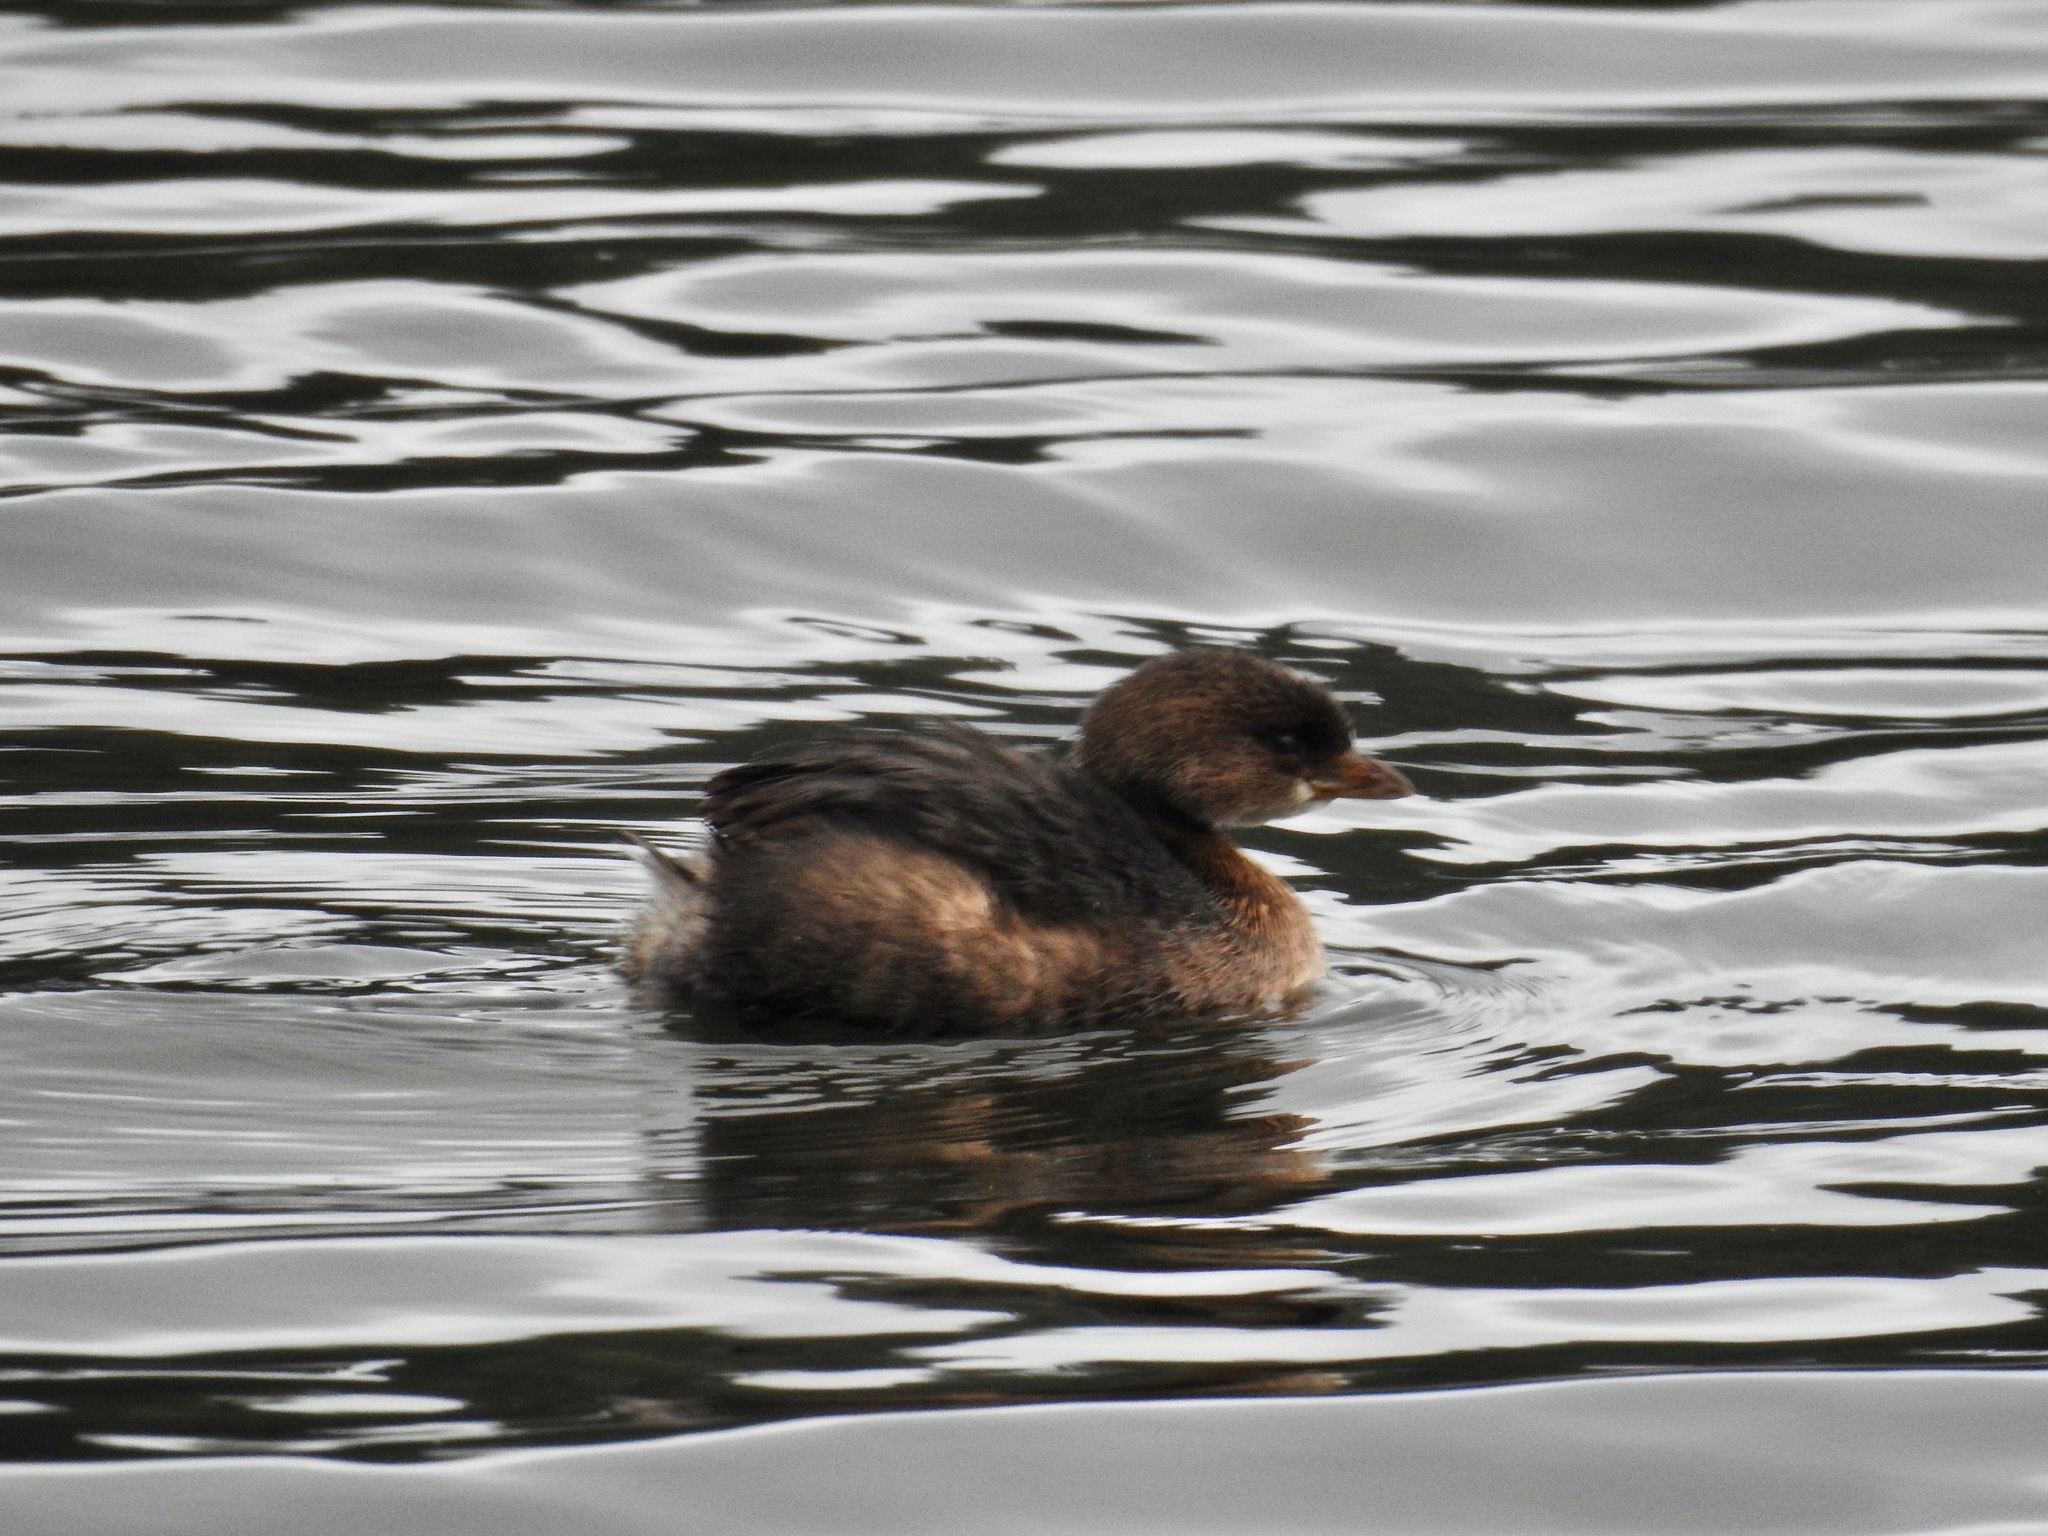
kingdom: Animalia
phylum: Chordata
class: Aves
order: Podicipediformes
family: Podicipedidae
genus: Podilymbus
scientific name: Podilymbus podiceps
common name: Pied-billed grebe
